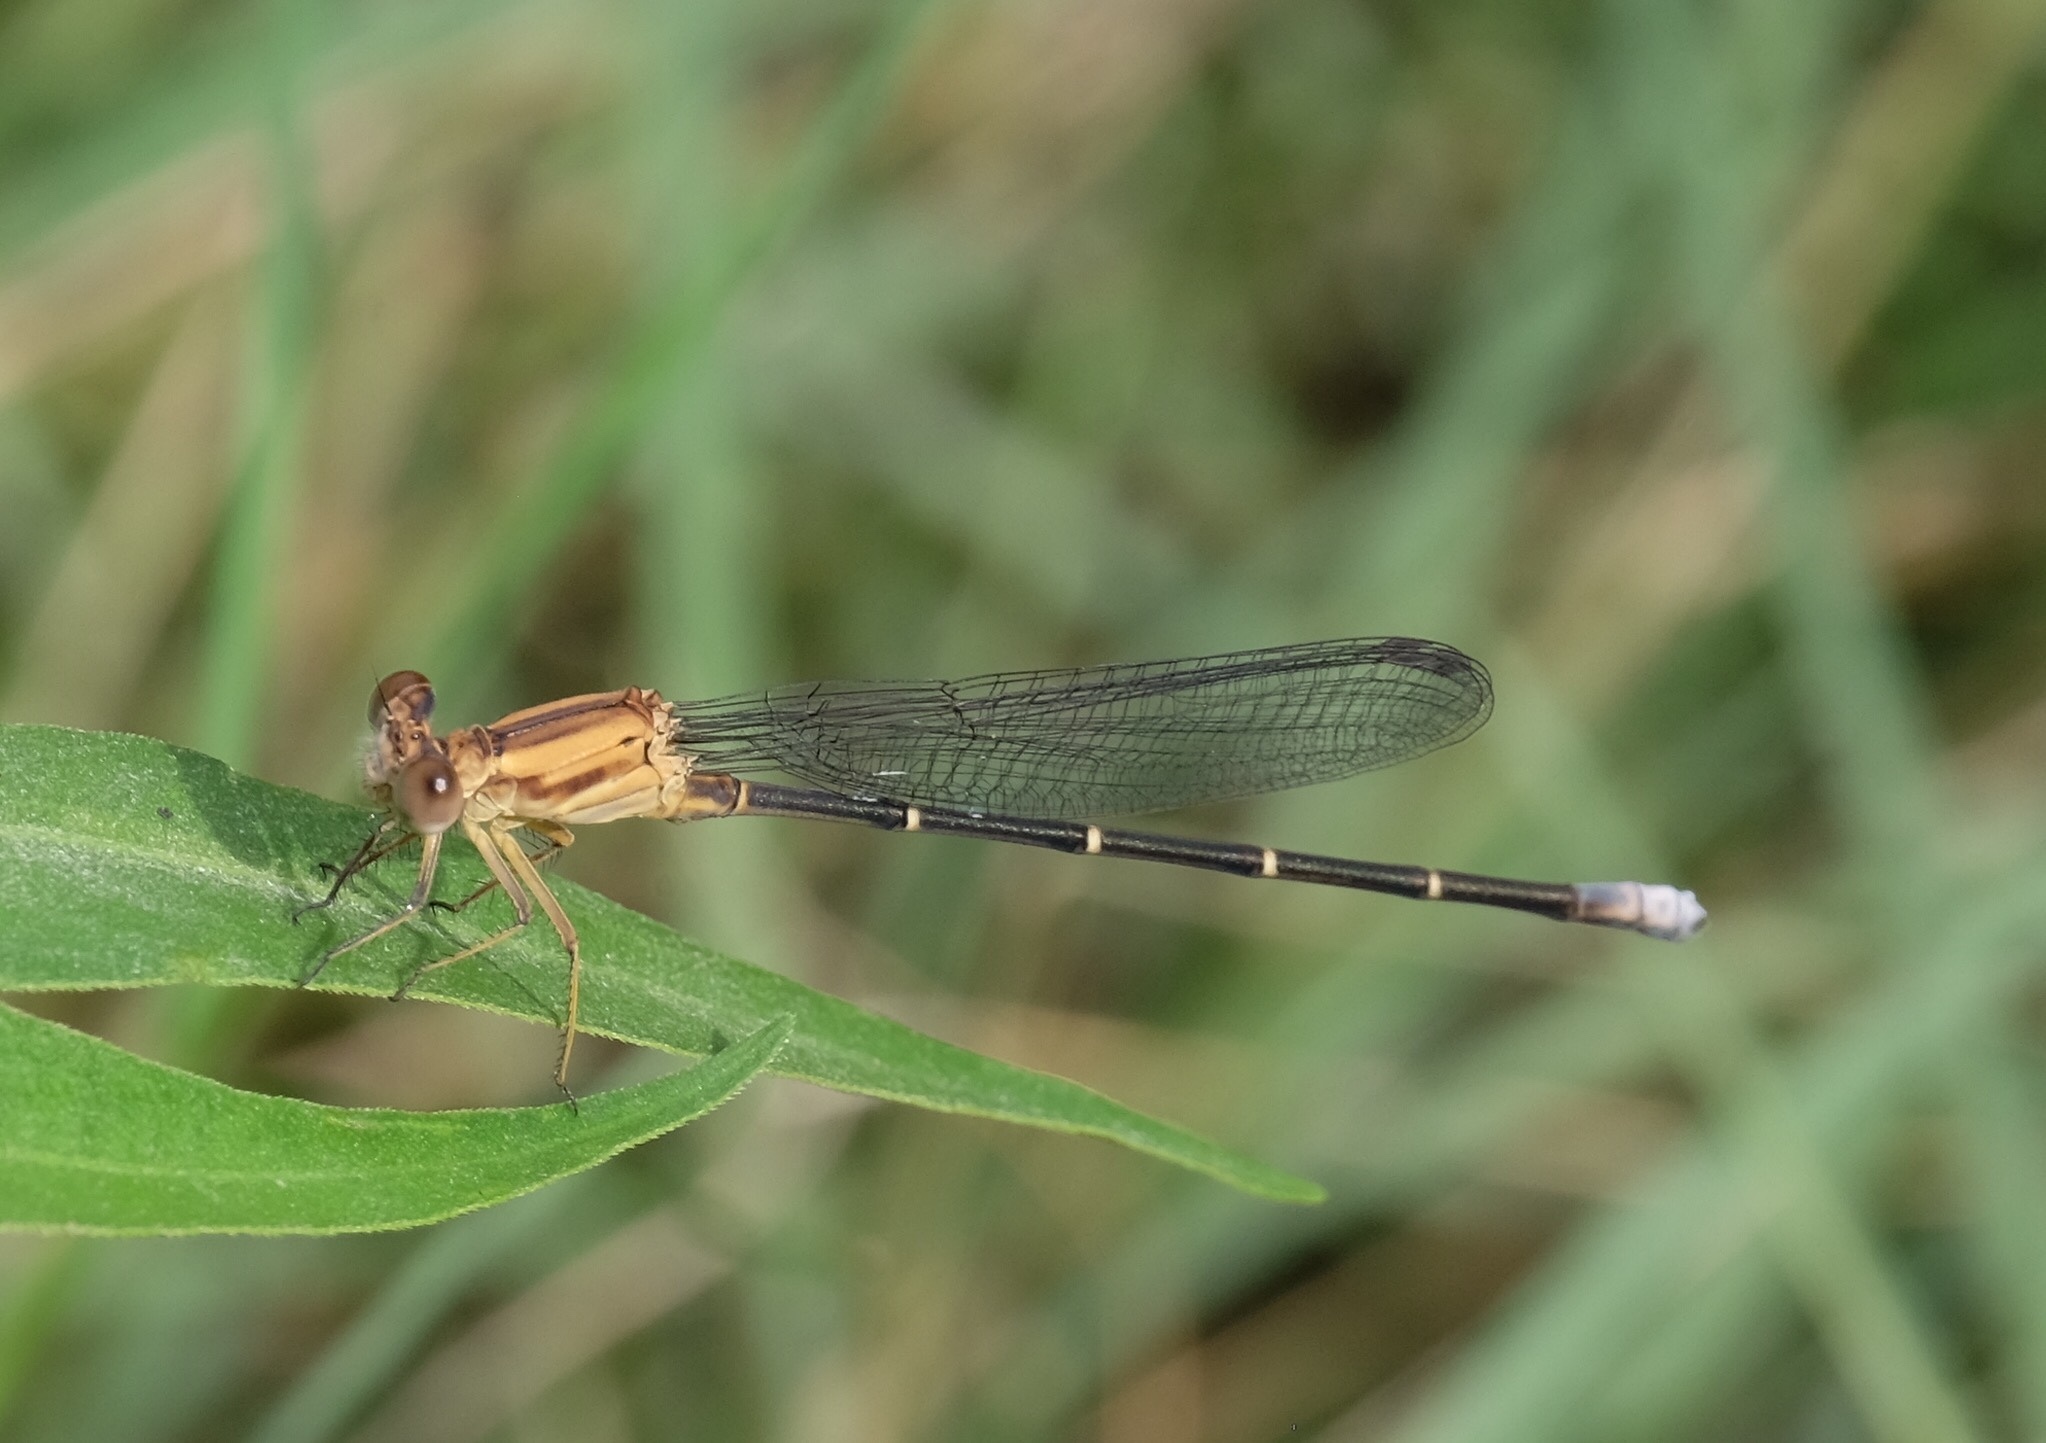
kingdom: Animalia
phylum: Arthropoda
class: Insecta
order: Odonata
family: Coenagrionidae
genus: Argia
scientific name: Argia moesta
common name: Powdered dancer
